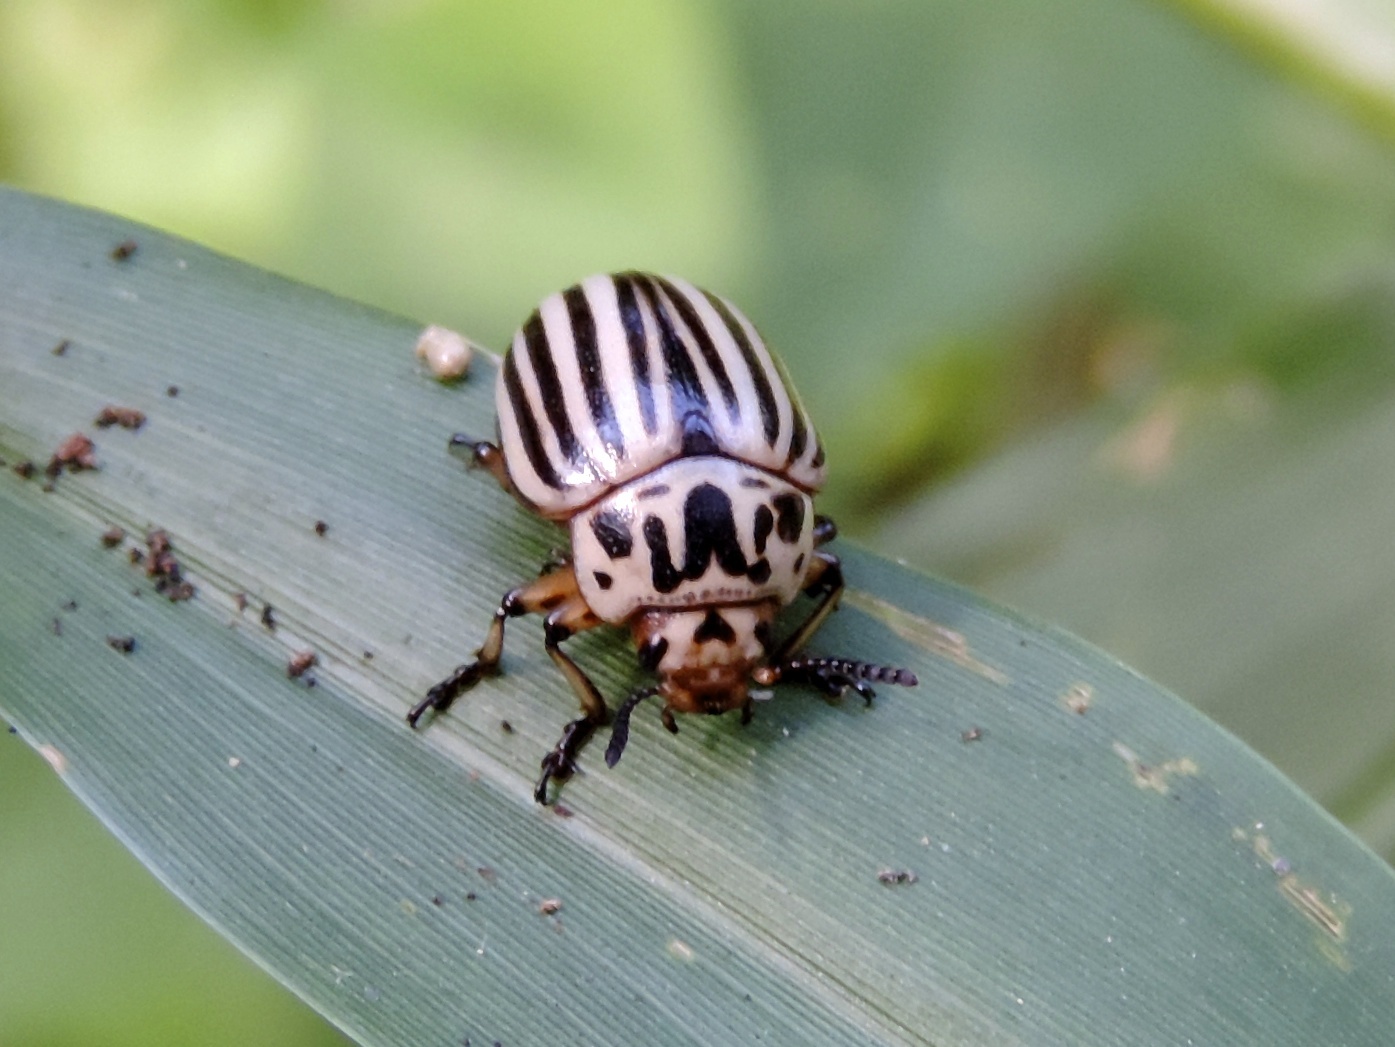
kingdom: Animalia
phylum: Arthropoda
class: Insecta
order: Coleoptera
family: Chrysomelidae
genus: Leptinotarsa
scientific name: Leptinotarsa decemlineata
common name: Colorado potato beetle
